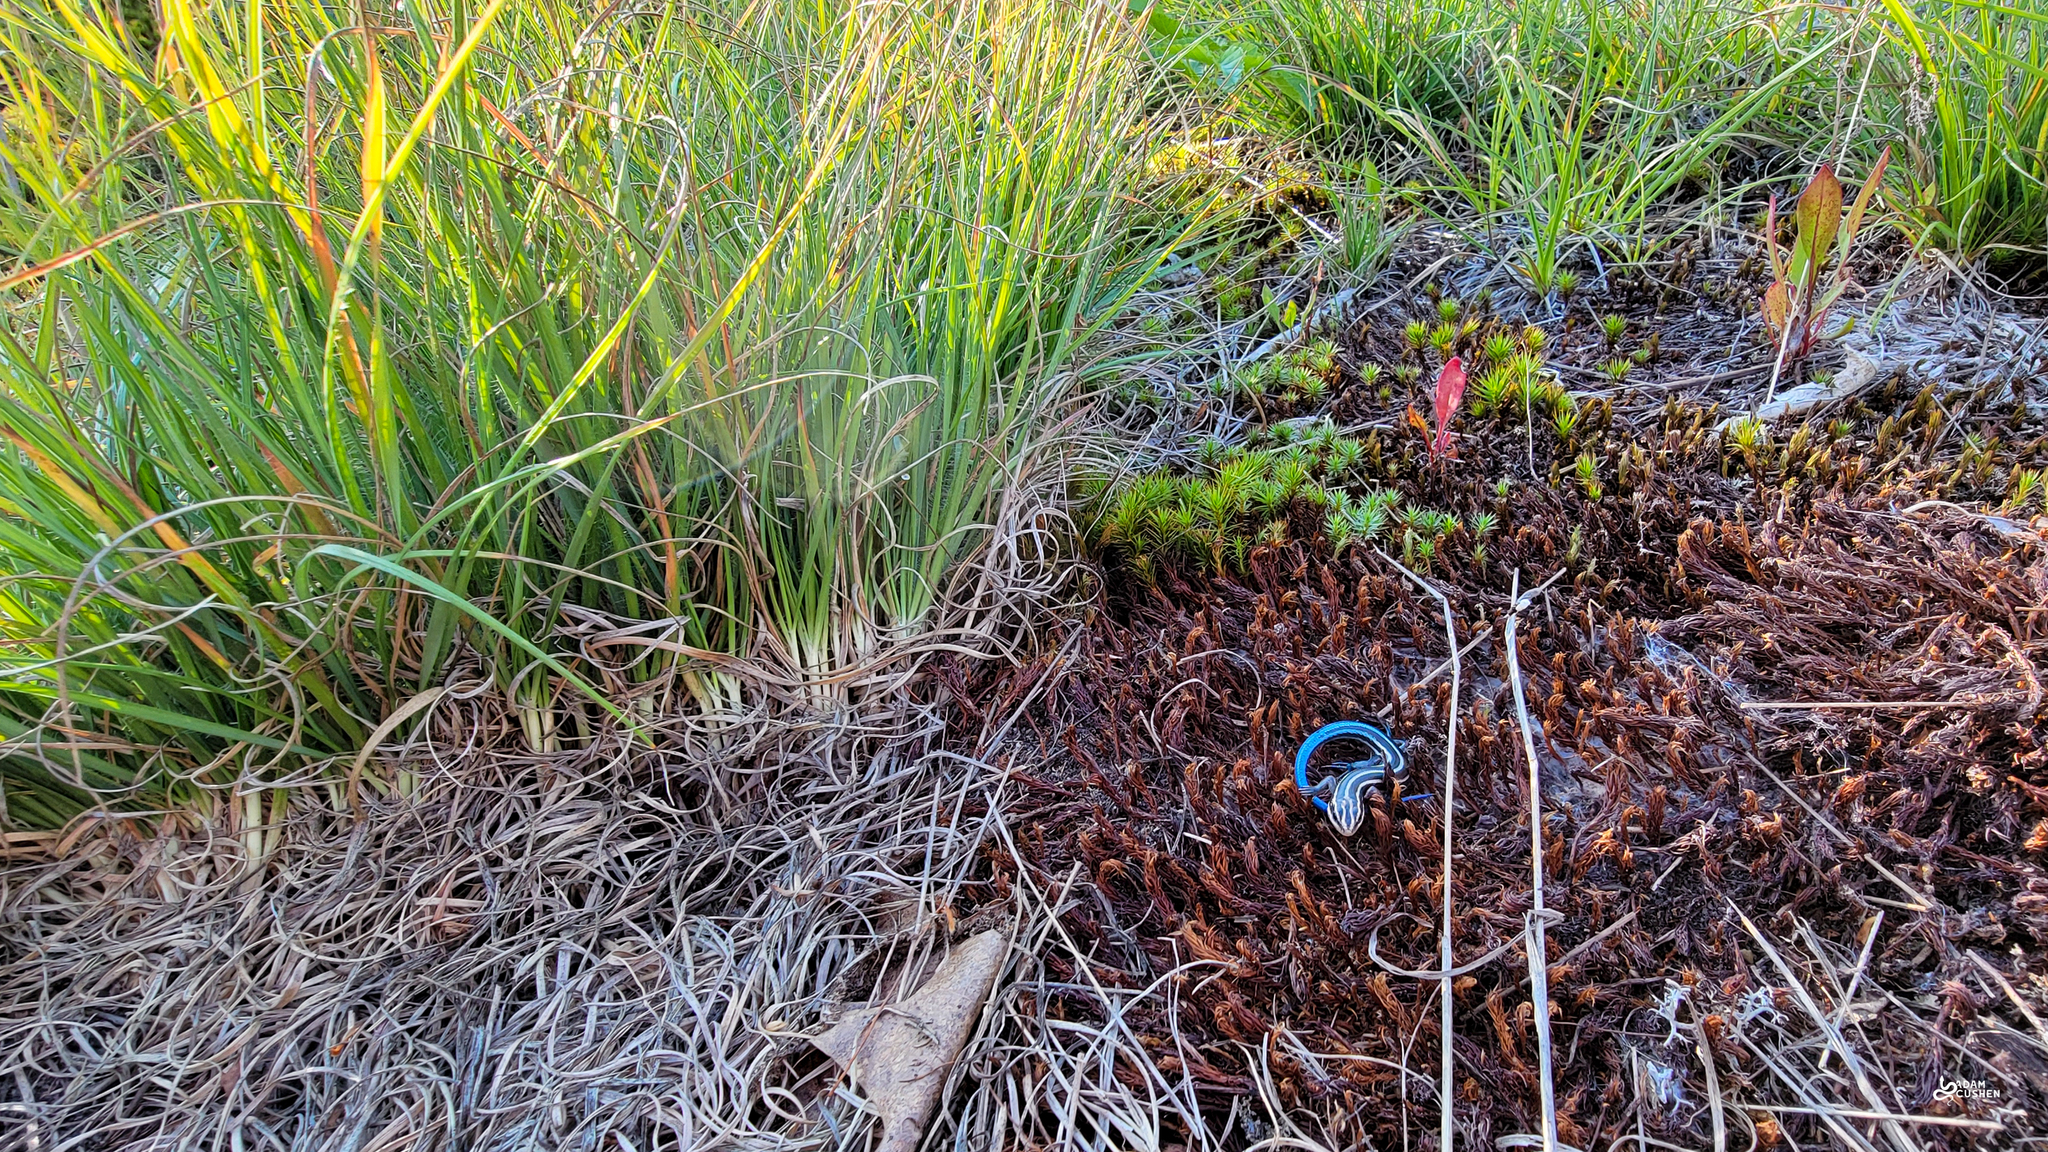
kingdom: Animalia
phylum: Chordata
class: Squamata
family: Scincidae
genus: Plestiodon
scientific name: Plestiodon fasciatus
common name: Five-lined skink
